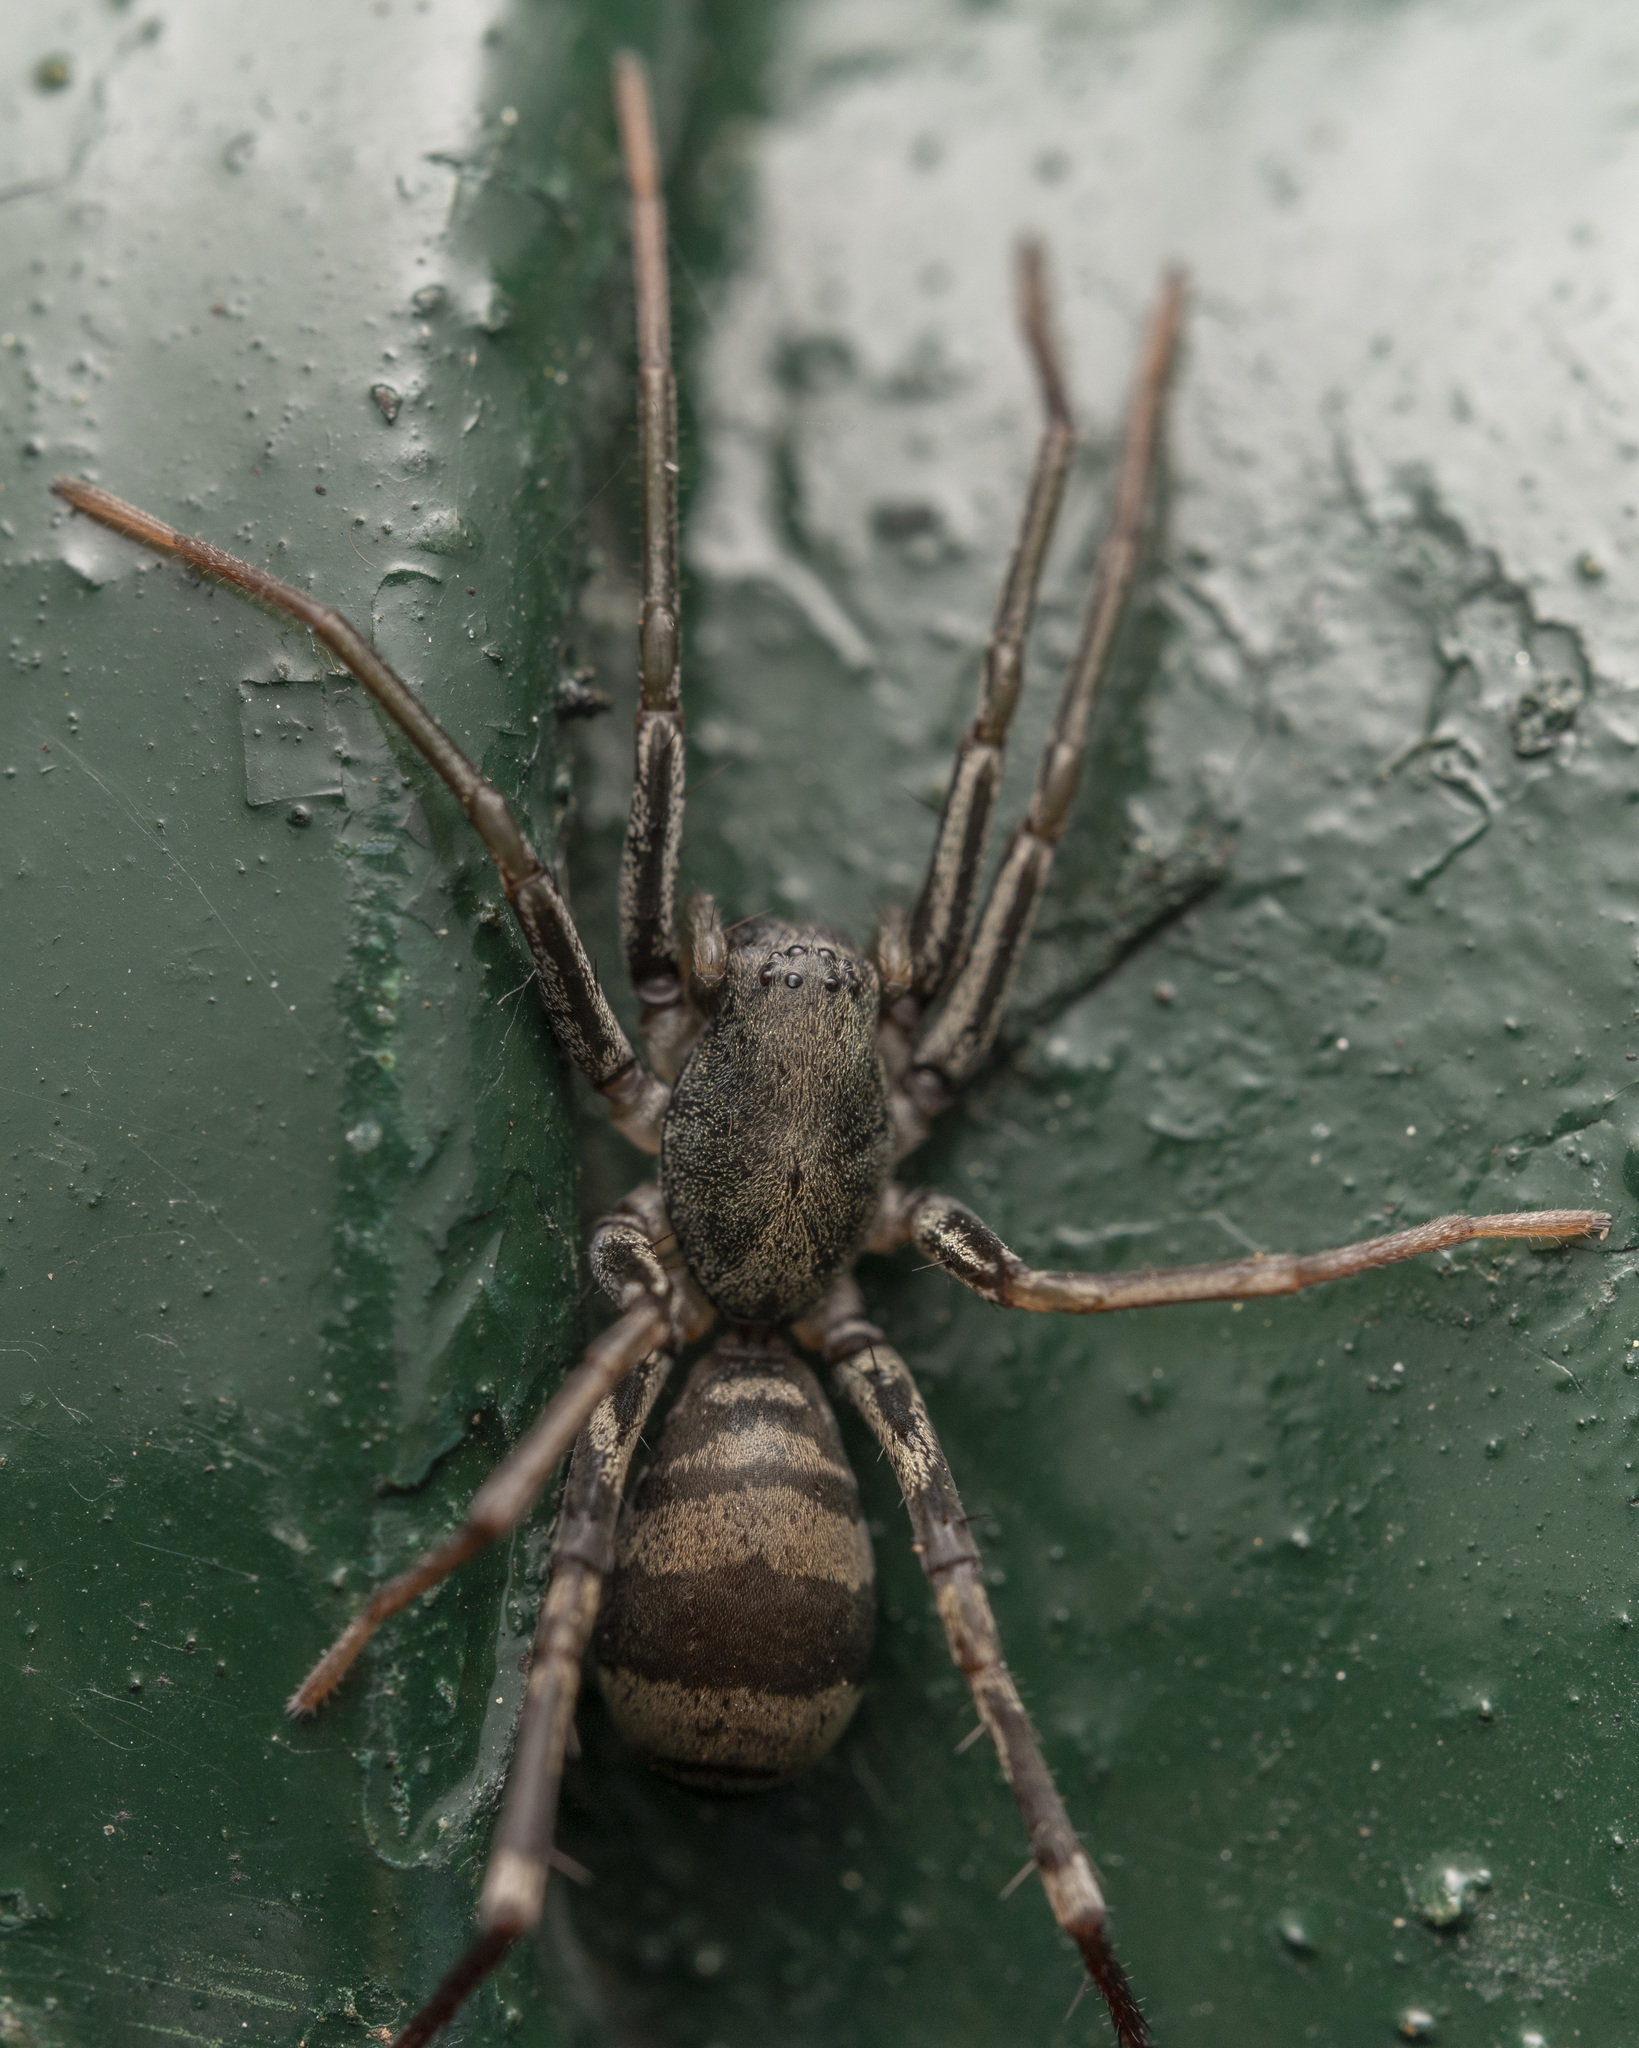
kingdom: Animalia
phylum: Arthropoda
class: Arachnida
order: Araneae
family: Corinnidae
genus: Corinnomma
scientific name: Corinnomma severum
